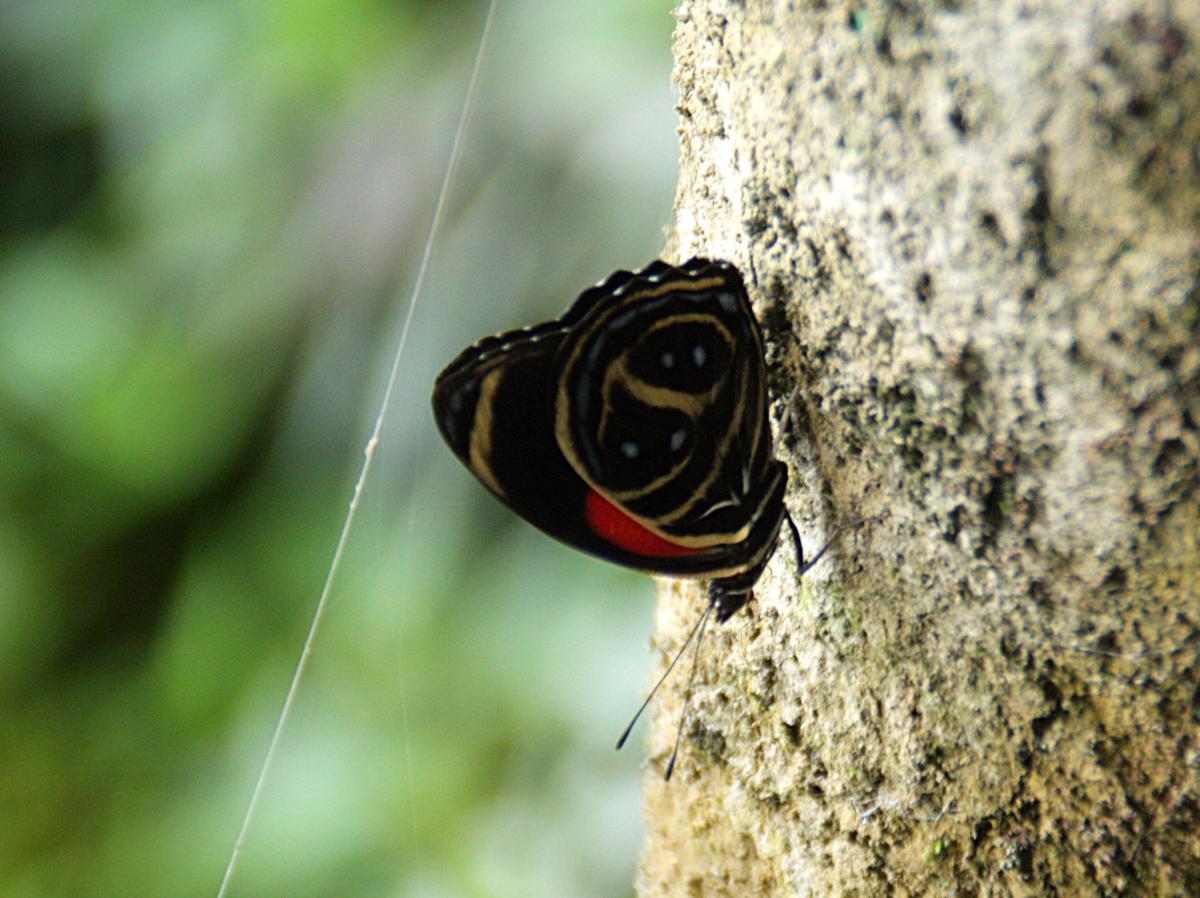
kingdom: Animalia
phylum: Arthropoda
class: Insecta
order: Lepidoptera
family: Nymphalidae
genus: Catagramma
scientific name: Catagramma texa
